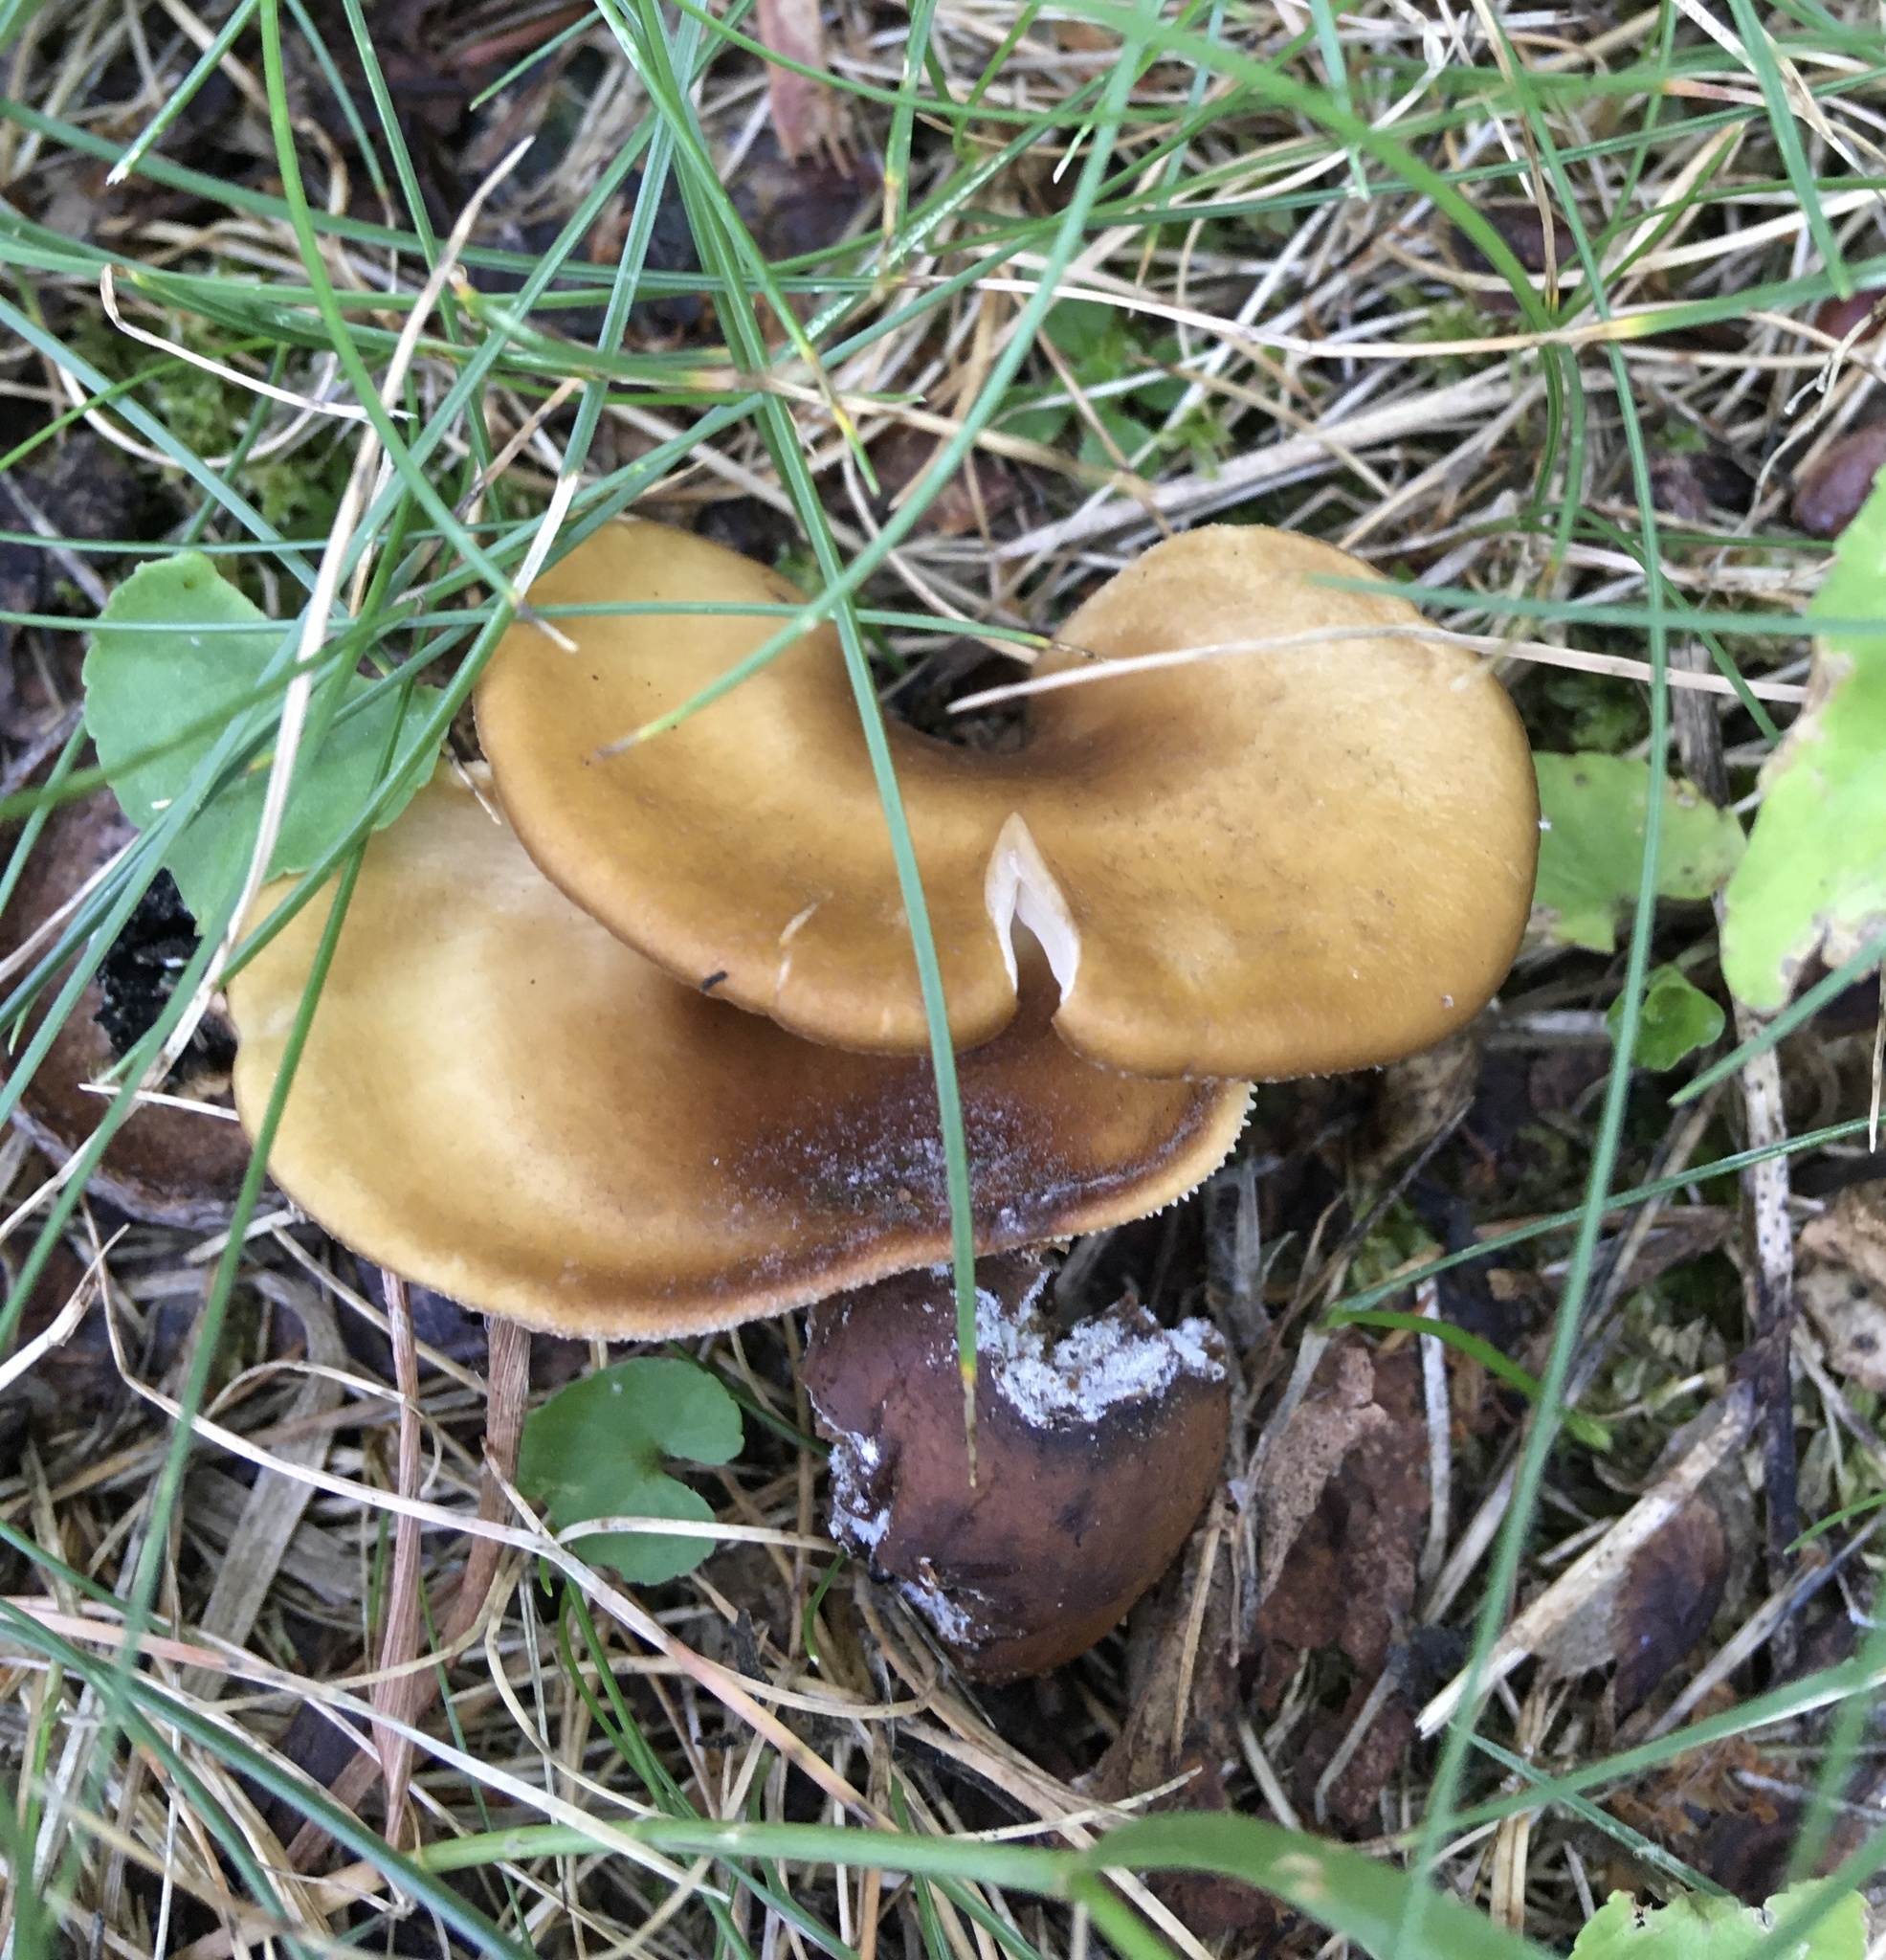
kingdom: Fungi
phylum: Basidiomycota
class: Agaricomycetes
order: Agaricales
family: Pleurotaceae
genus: Hohenbuehelia
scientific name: Hohenbuehelia petaloides
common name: Shoehorn oyster
